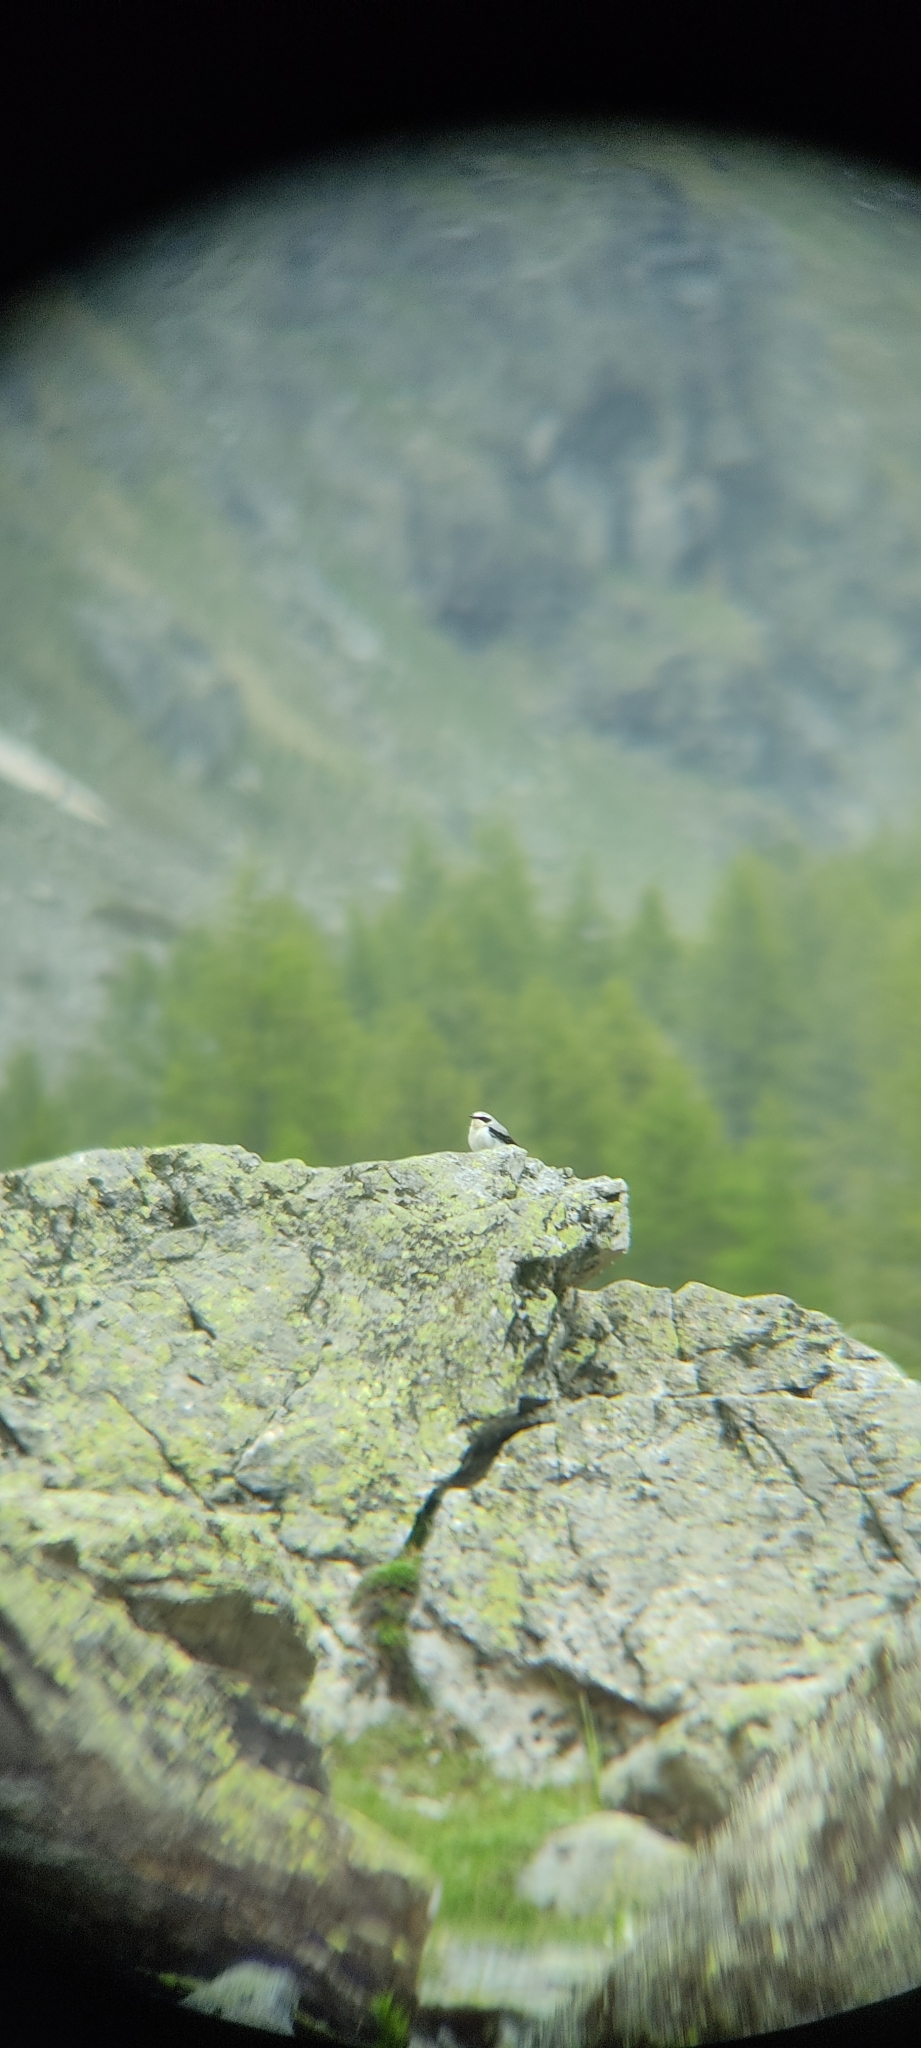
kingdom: Animalia
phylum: Chordata
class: Aves
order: Passeriformes
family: Muscicapidae
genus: Oenanthe
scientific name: Oenanthe oenanthe
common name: Northern wheatear
